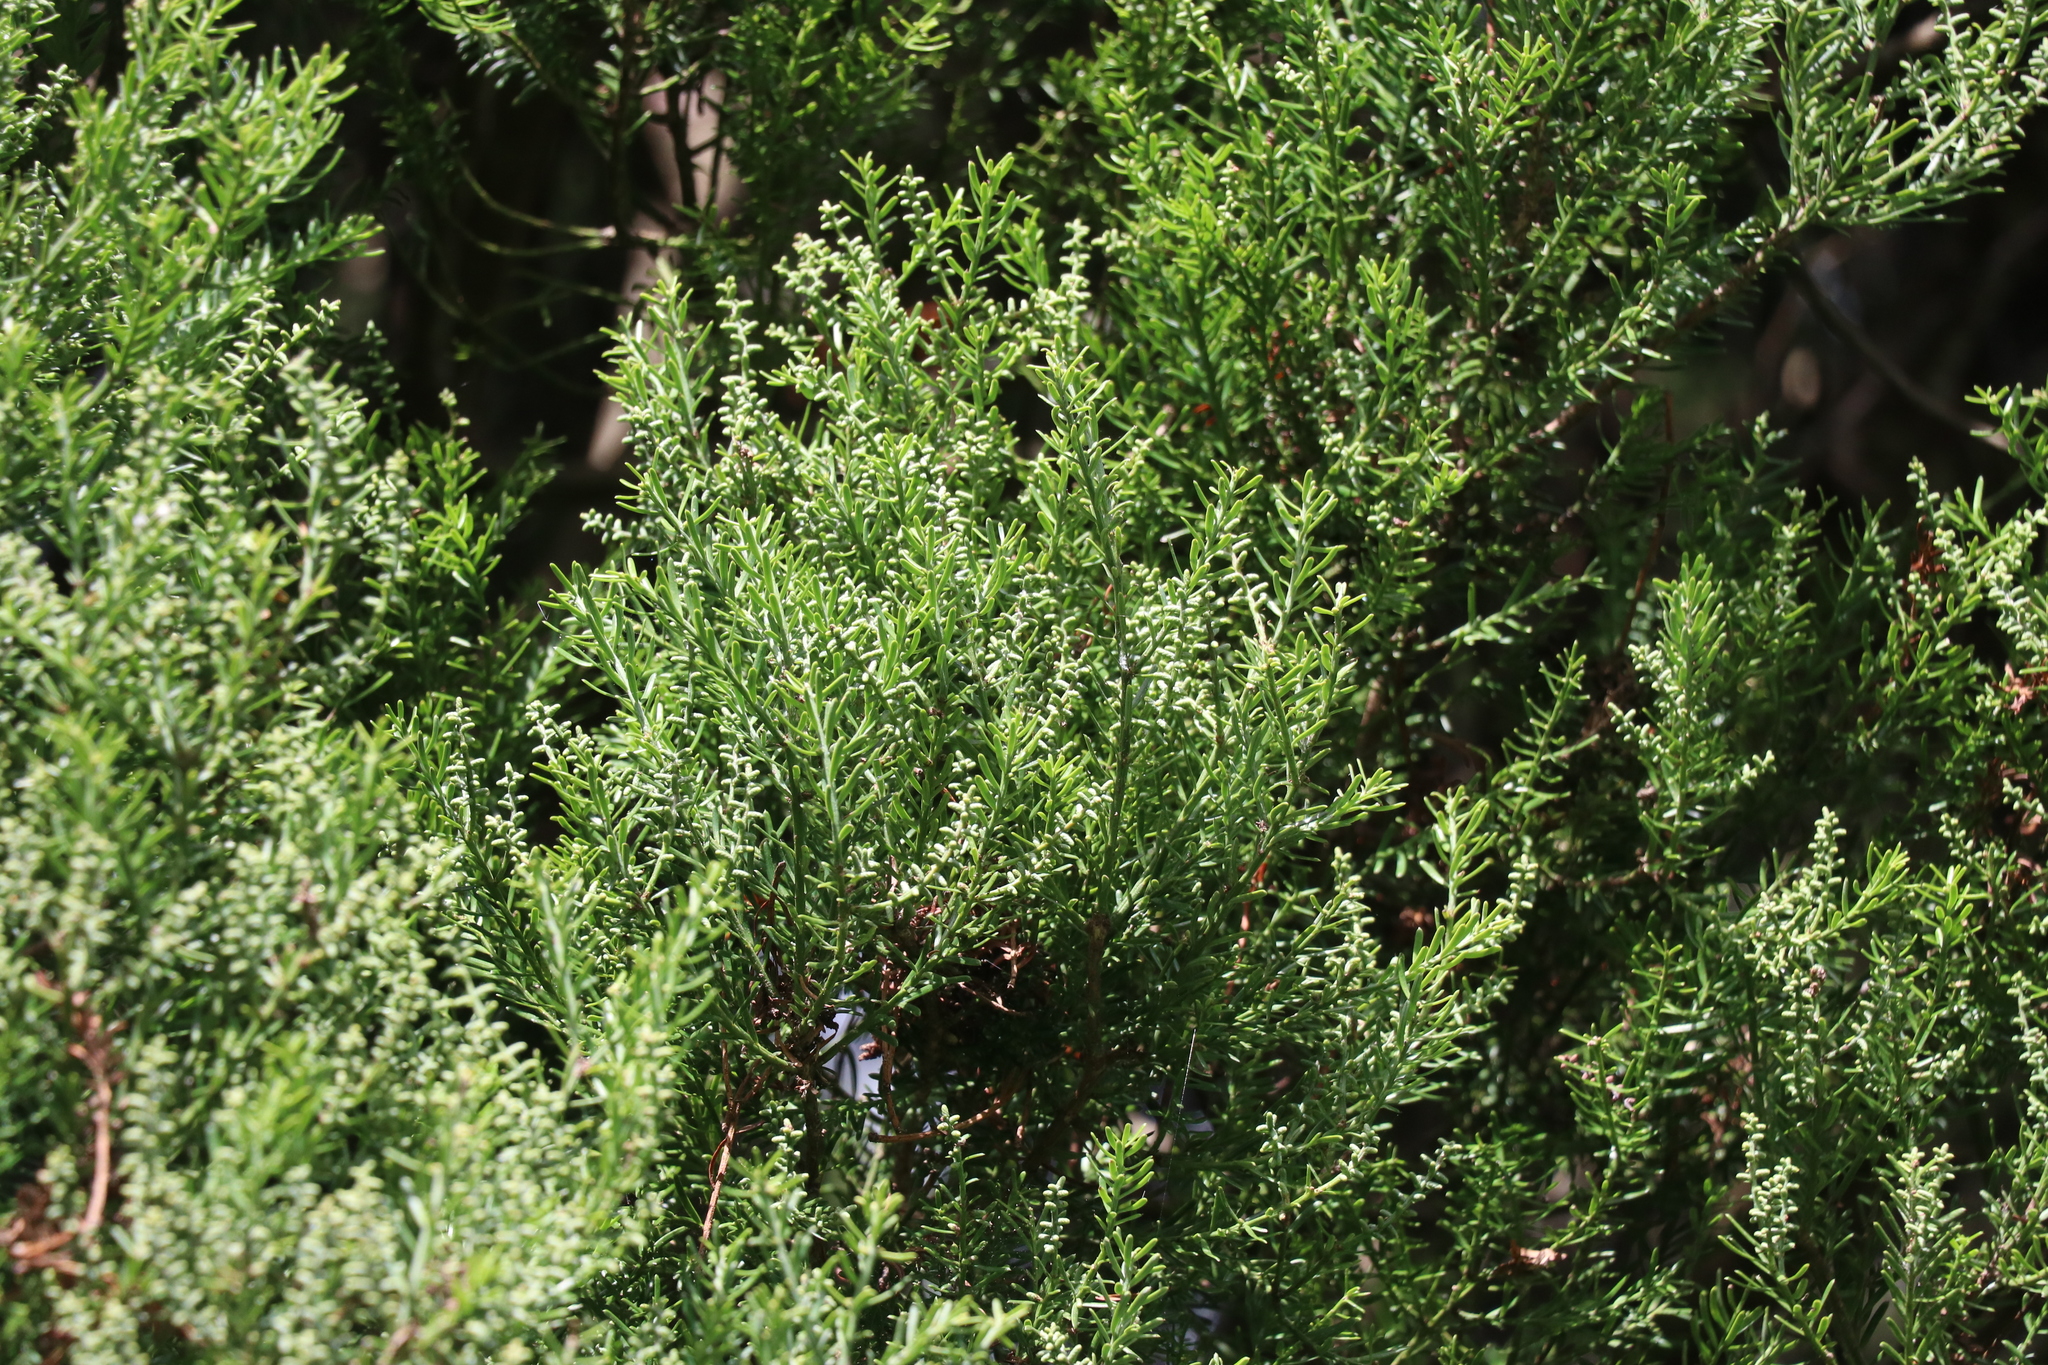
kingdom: Plantae
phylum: Tracheophyta
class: Pinopsida
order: Pinales
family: Podocarpaceae
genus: Prumnopitys
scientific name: Prumnopitys taxifolia
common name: Matai
